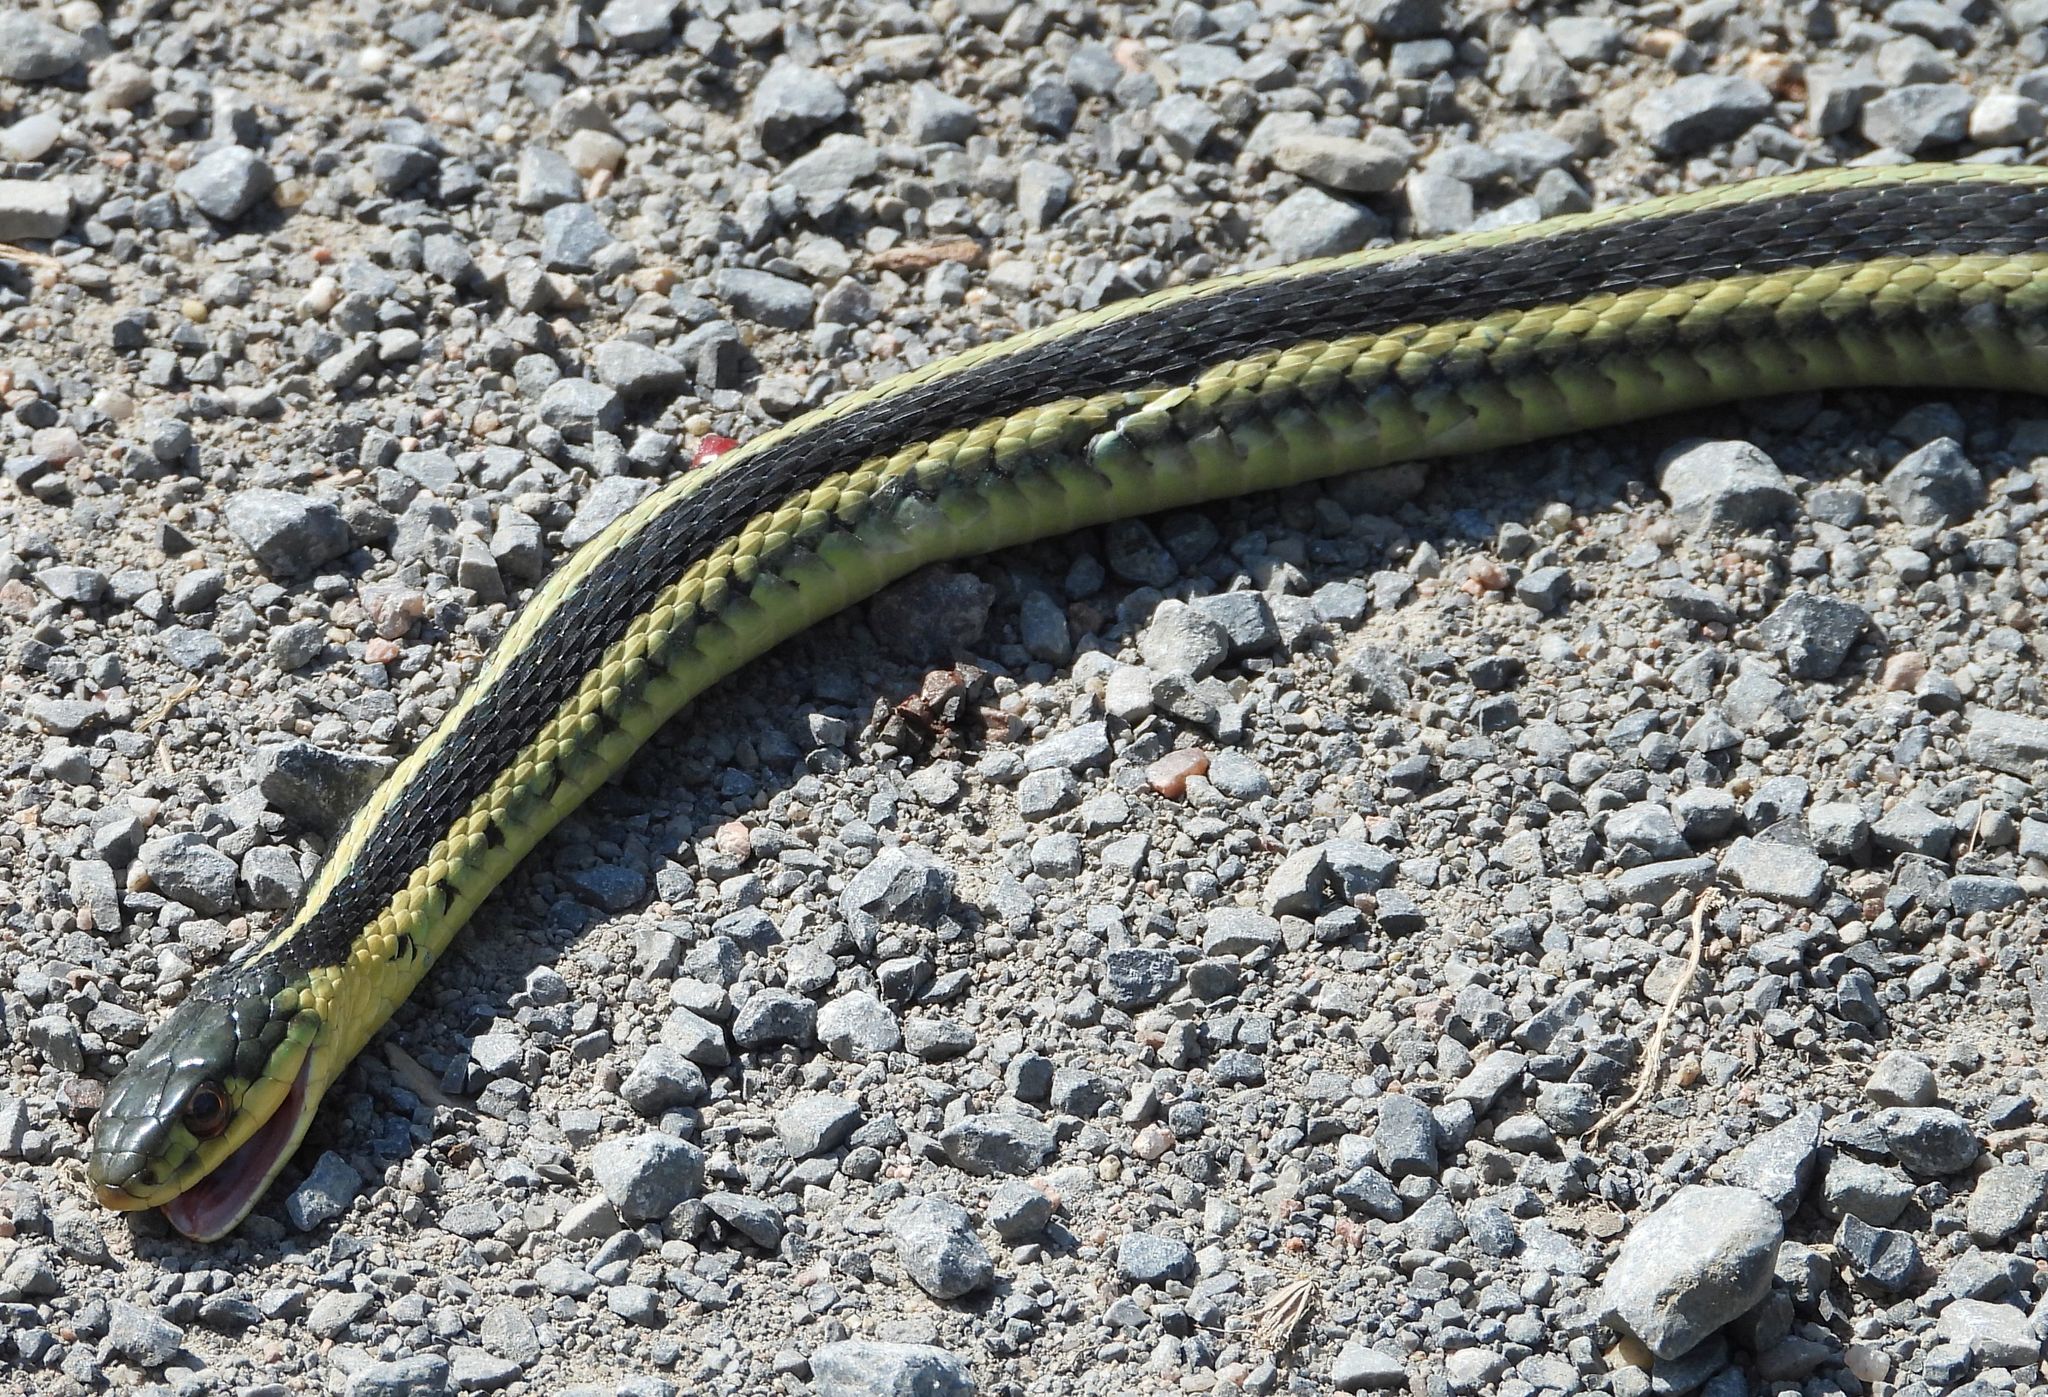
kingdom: Animalia
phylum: Chordata
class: Squamata
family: Colubridae
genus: Thamnophis
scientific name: Thamnophis sirtalis
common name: Common garter snake
